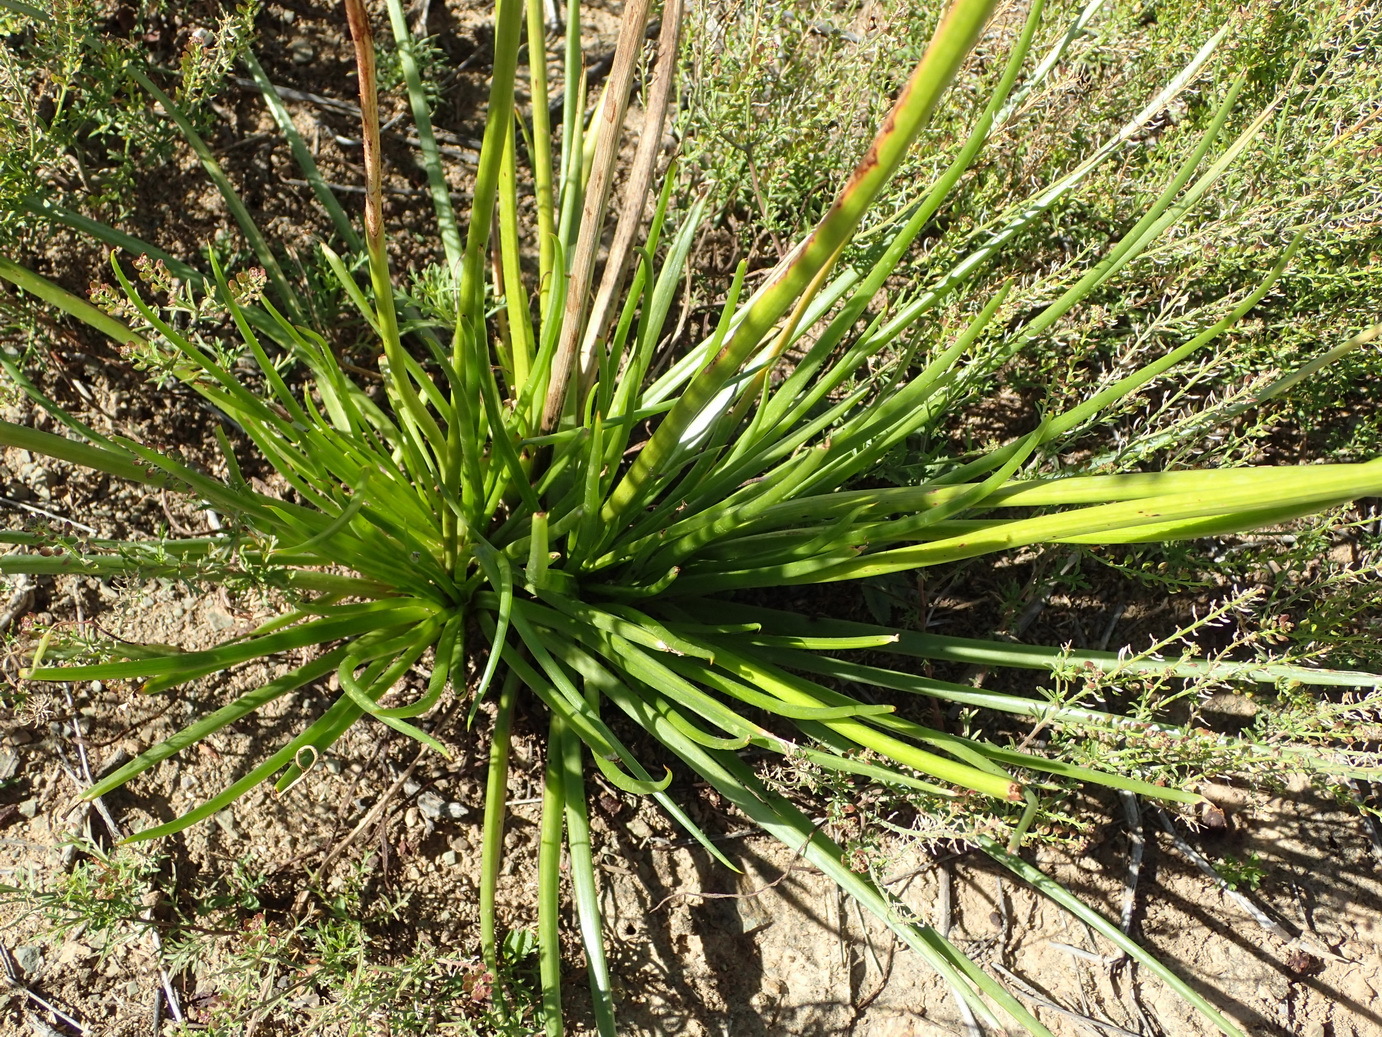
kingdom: Plantae
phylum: Tracheophyta
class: Liliopsida
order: Asparagales
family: Asphodelaceae
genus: Bulbine
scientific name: Bulbine abyssinica
